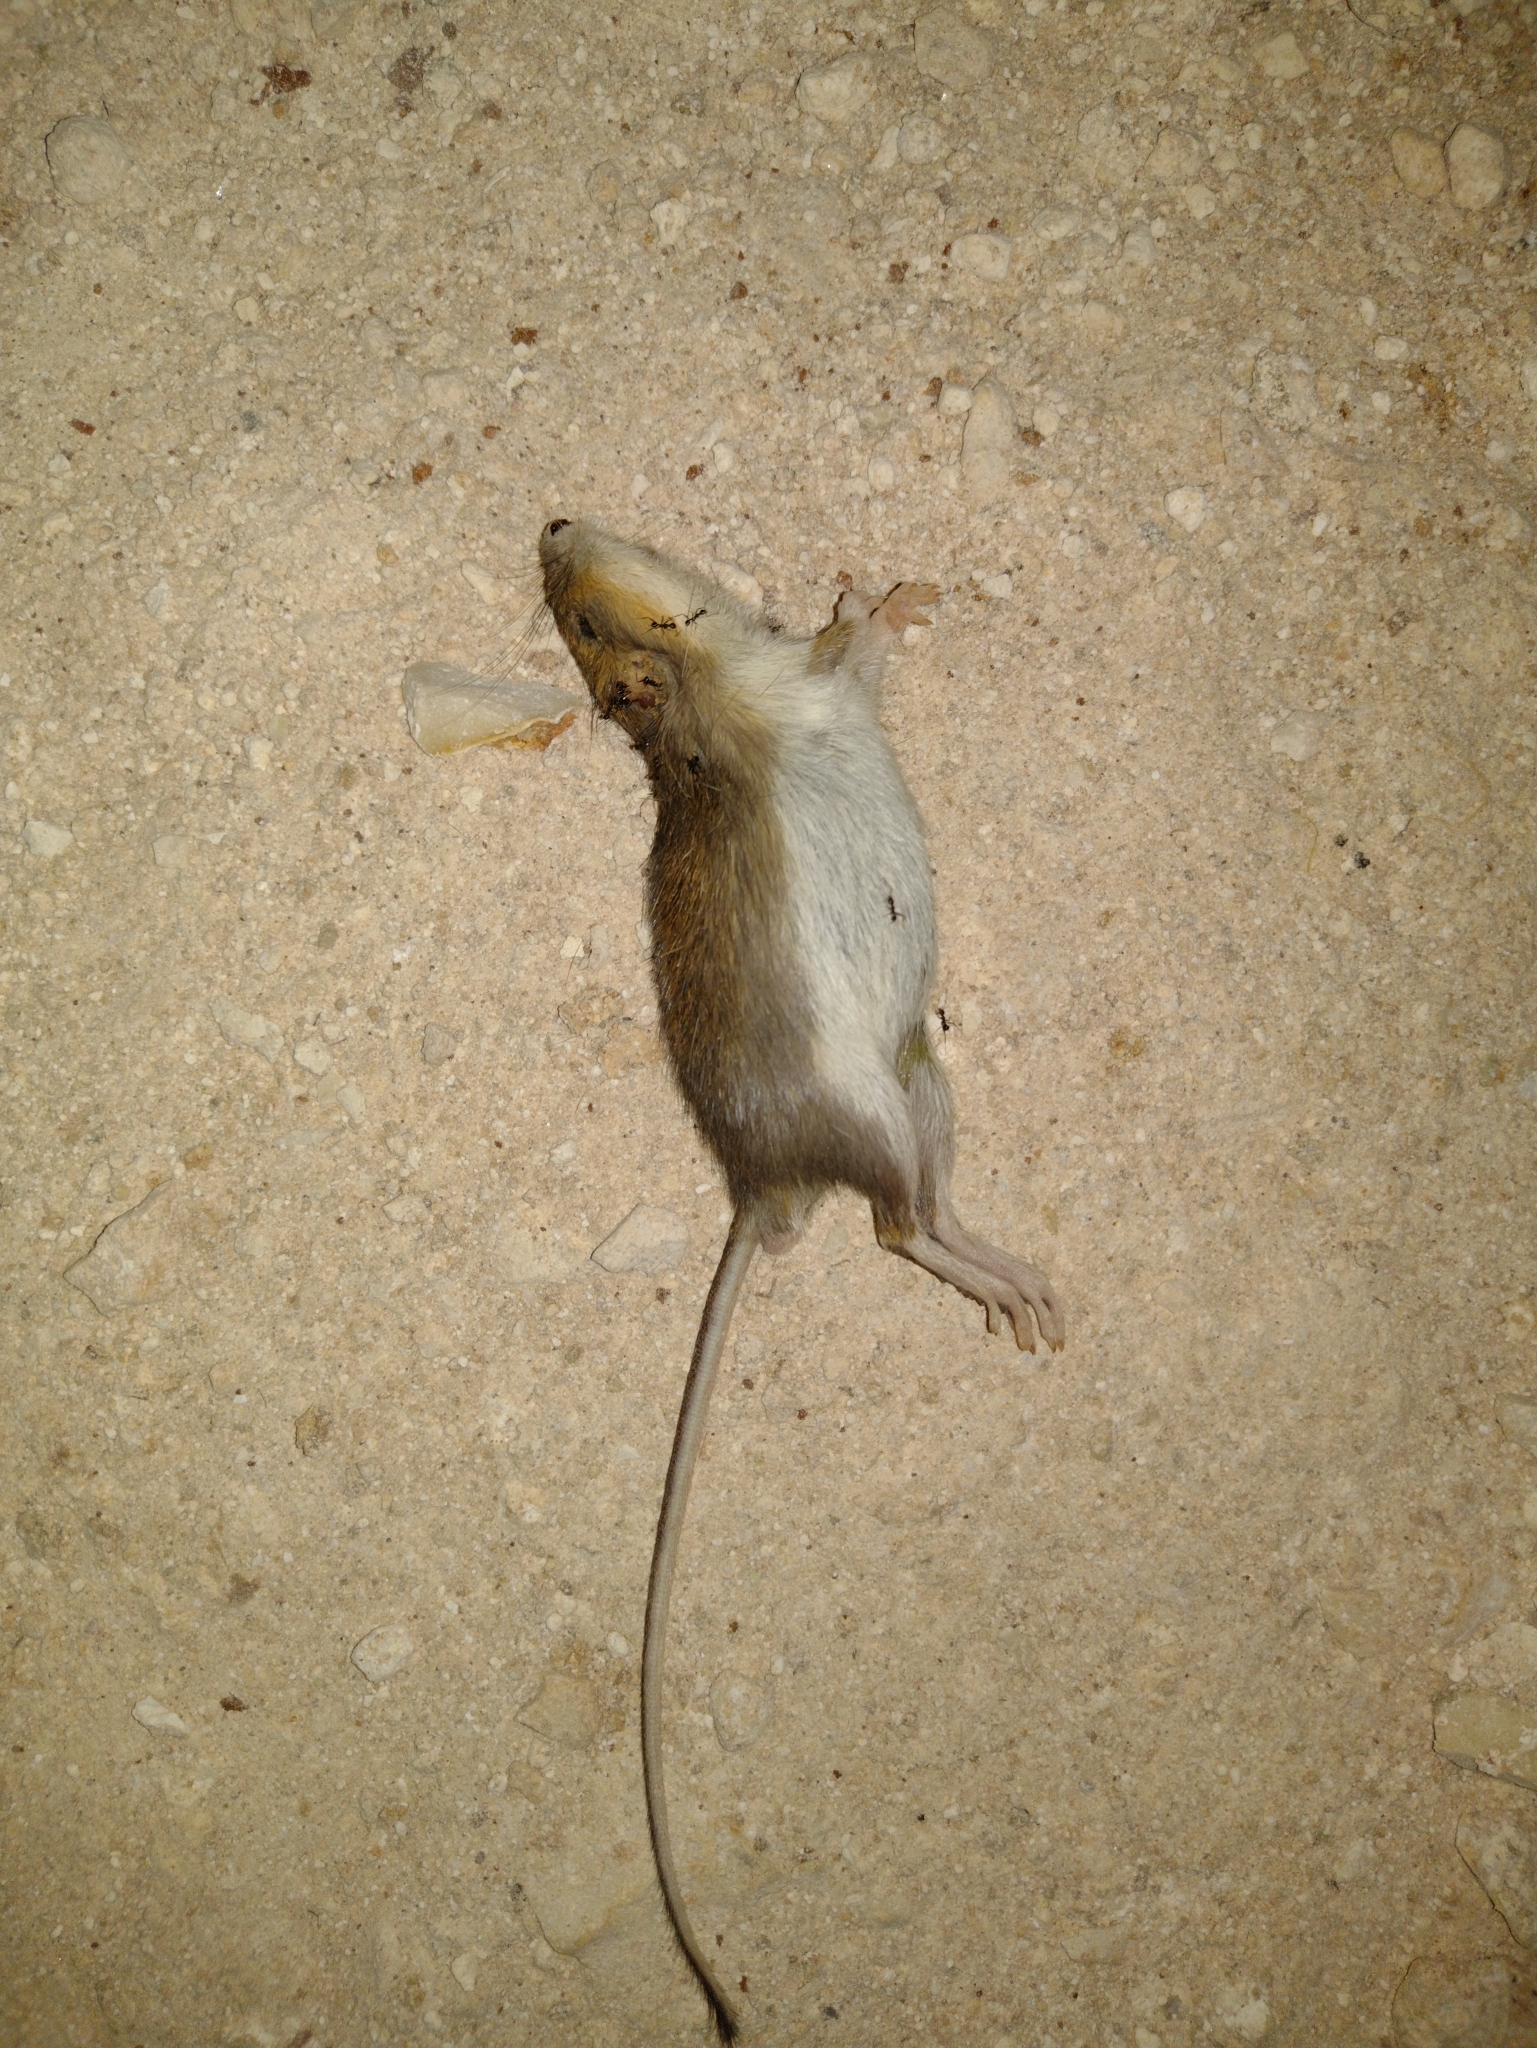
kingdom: Animalia
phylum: Chordata
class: Mammalia
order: Rodentia
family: Heteromyidae
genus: Heteromys
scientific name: Heteromys gaumeri
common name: Gaumer's spiny pocket mouse
